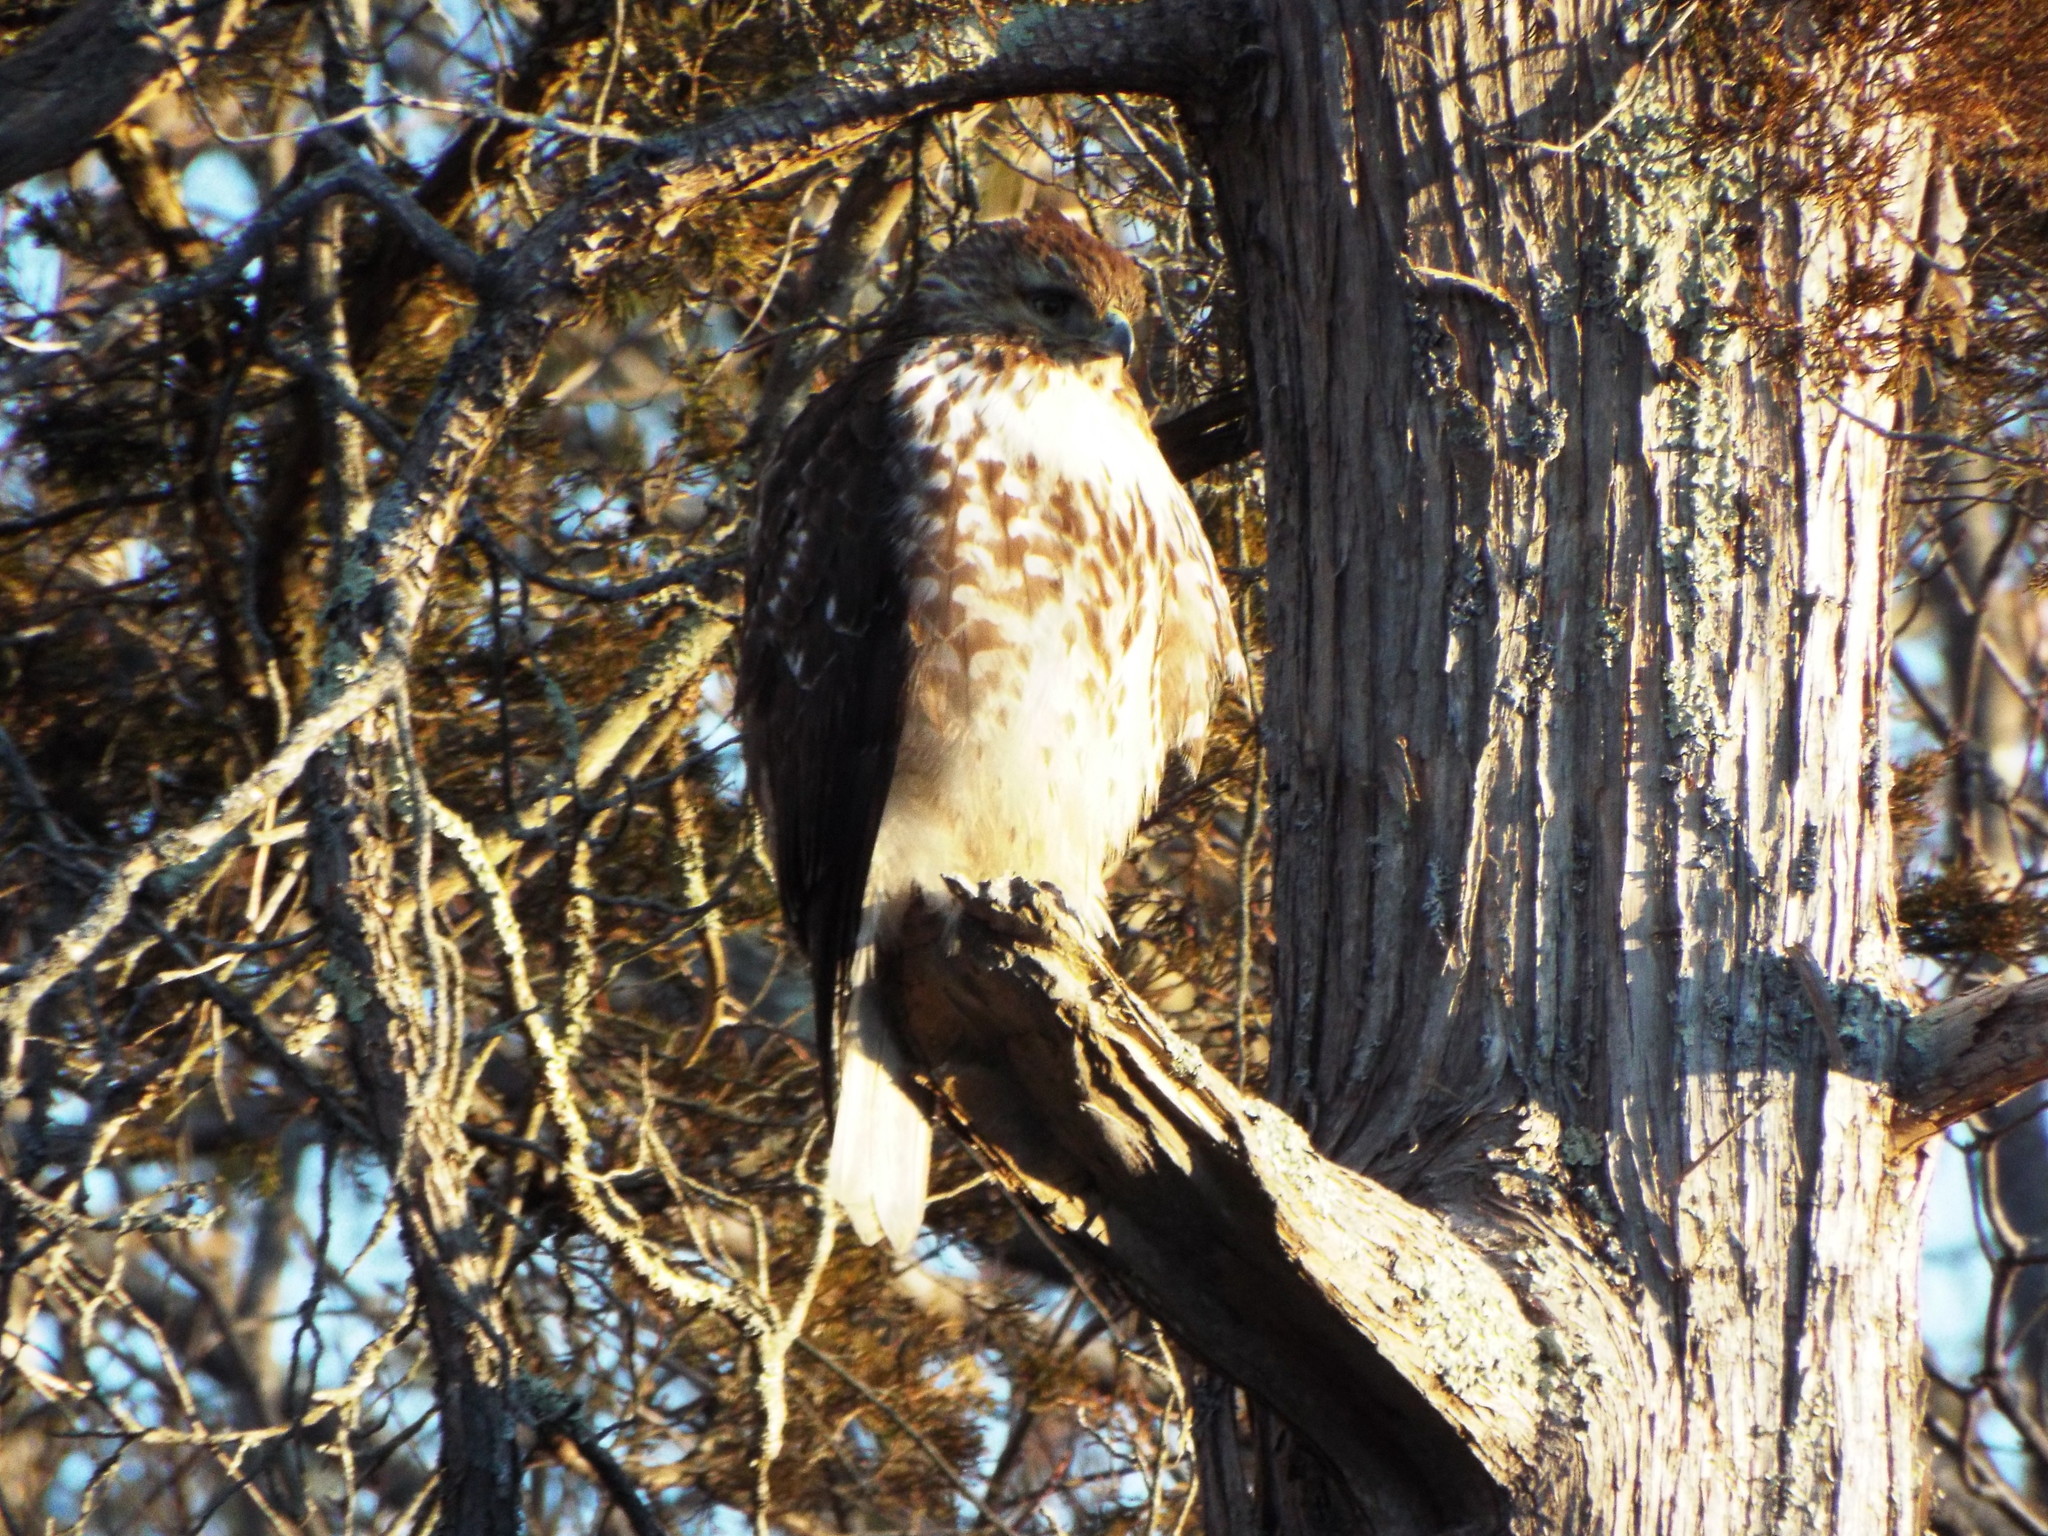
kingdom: Animalia
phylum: Chordata
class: Aves
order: Accipitriformes
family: Accipitridae
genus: Buteo
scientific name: Buteo jamaicensis
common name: Red-tailed hawk
